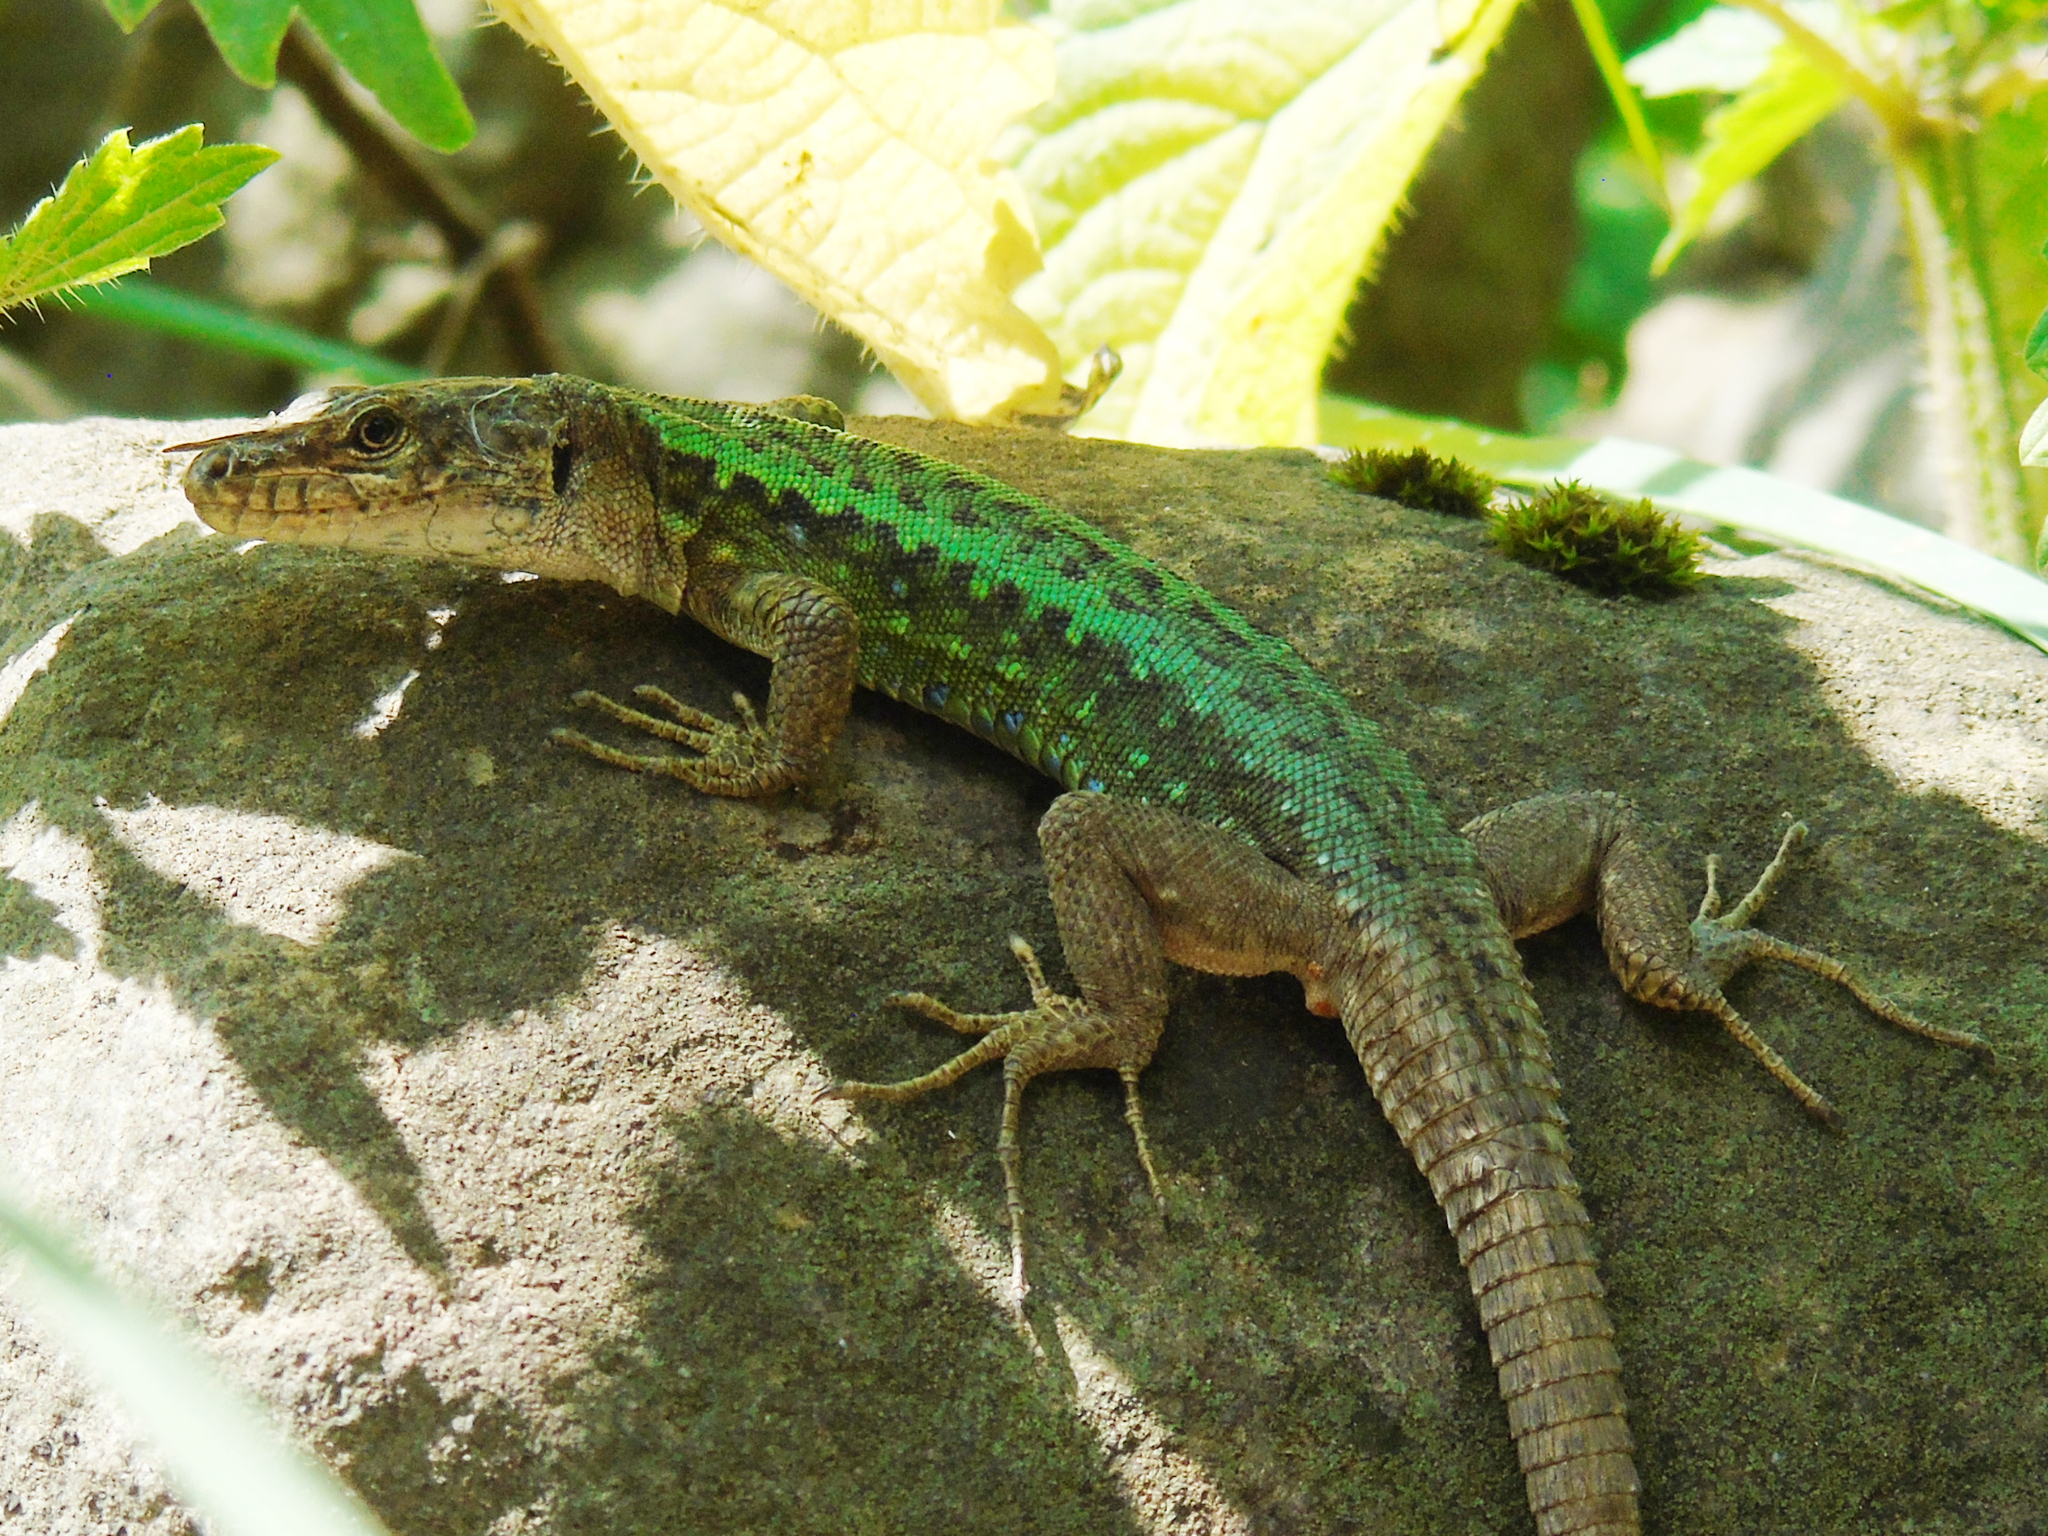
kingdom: Animalia
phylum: Chordata
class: Squamata
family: Lacertidae
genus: Darevskia
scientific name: Darevskia rudis
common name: Spiny-tailed lizard
